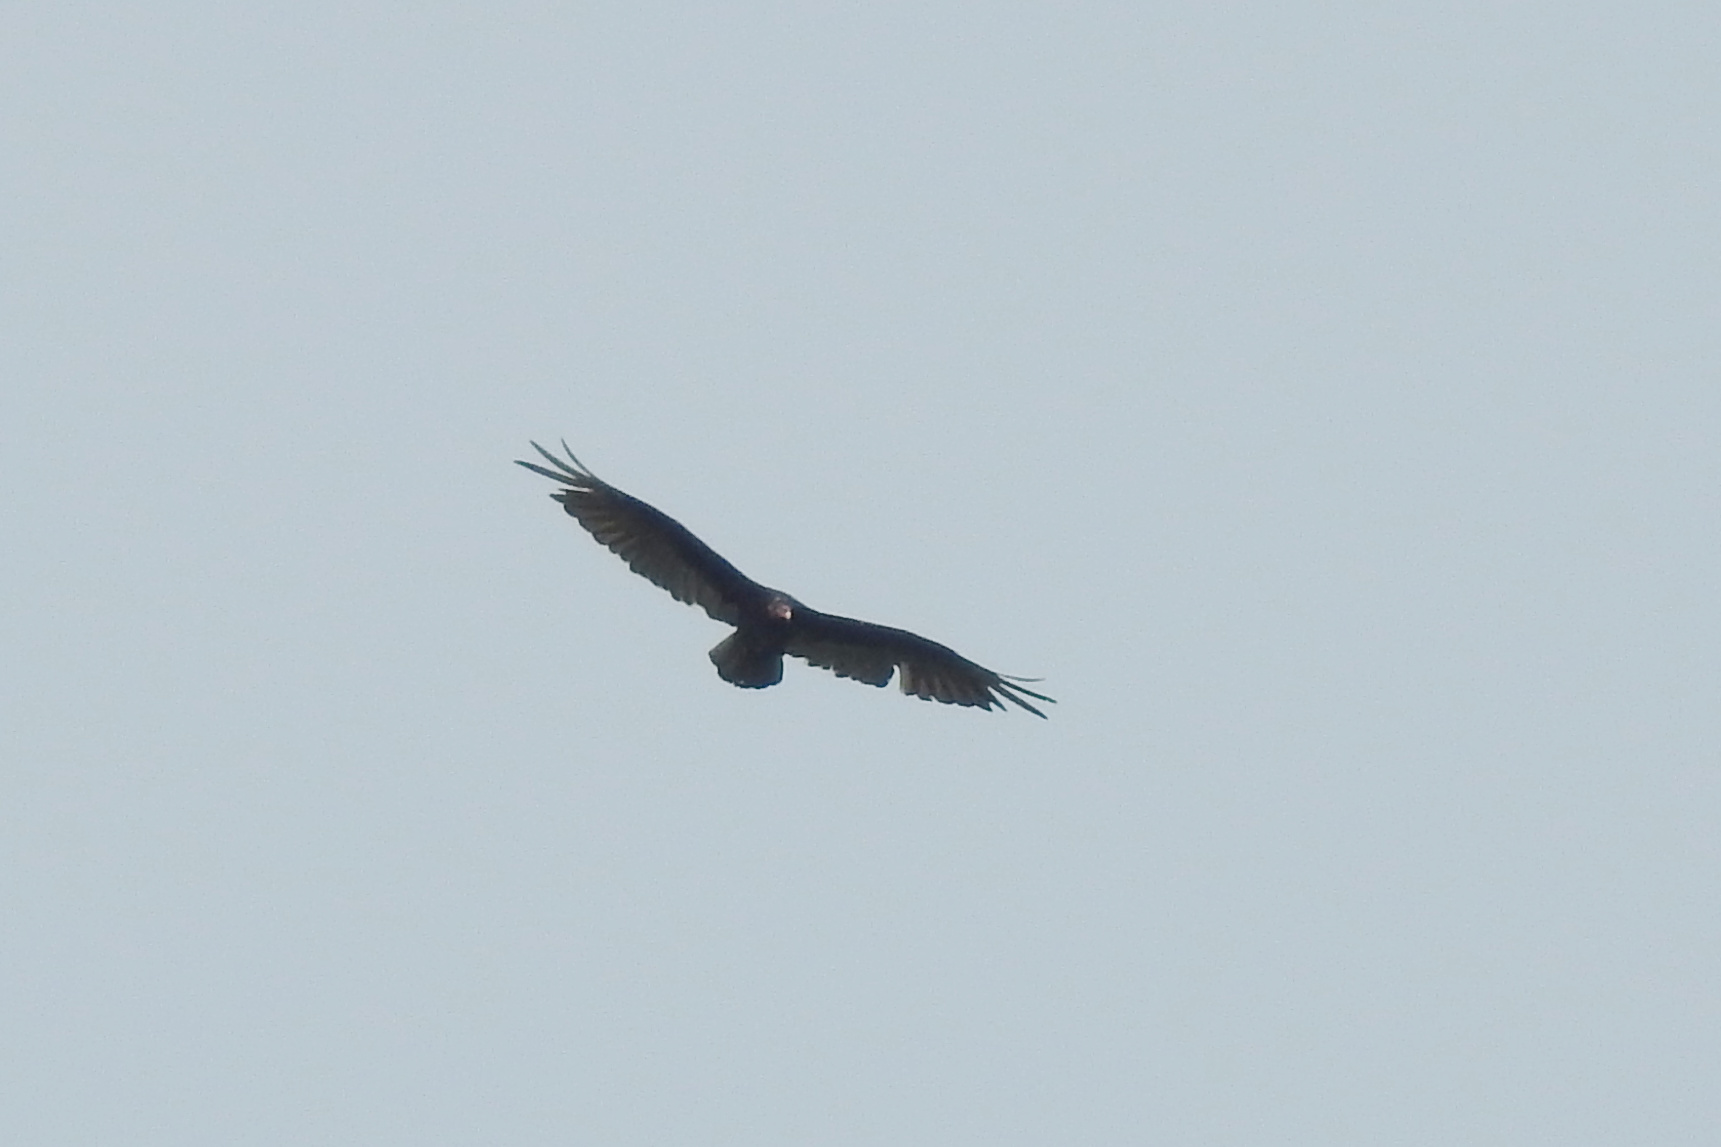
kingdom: Animalia
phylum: Chordata
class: Aves
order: Accipitriformes
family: Cathartidae
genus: Cathartes
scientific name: Cathartes aura
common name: Turkey vulture
